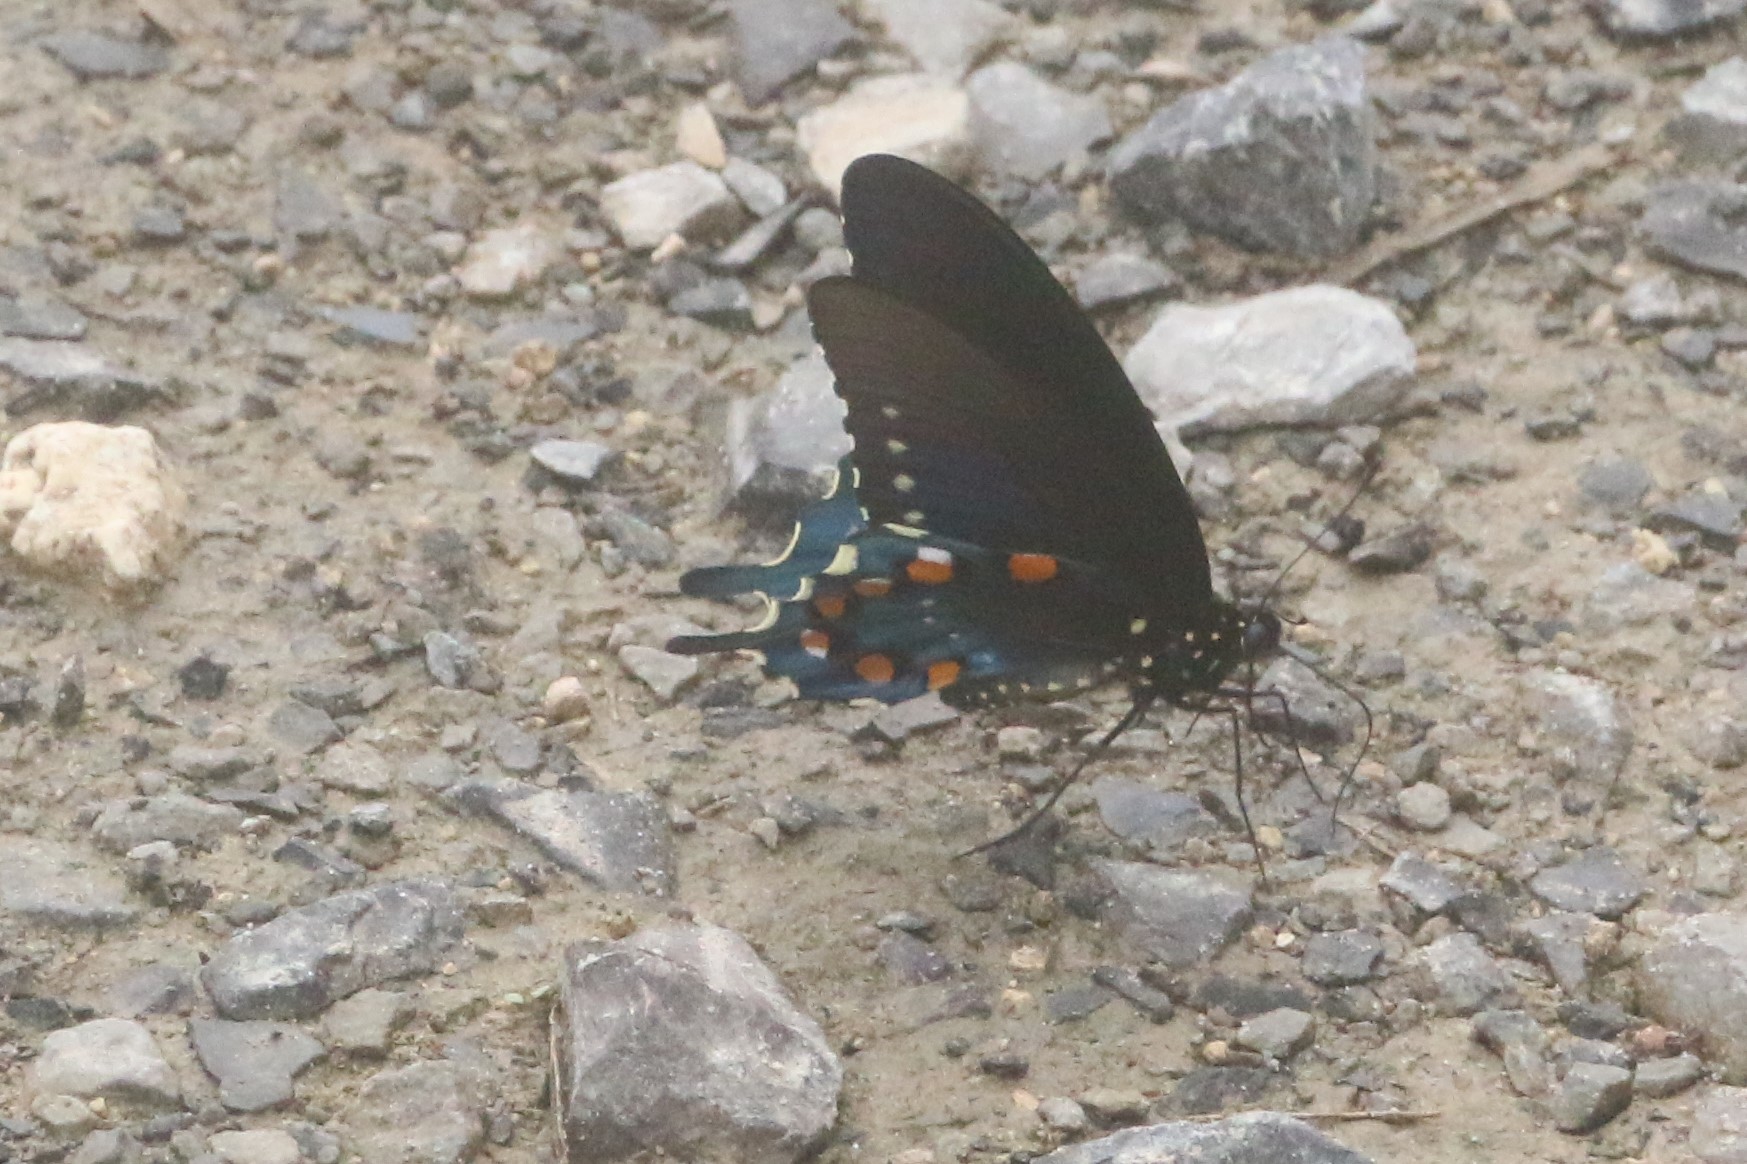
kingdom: Animalia
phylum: Arthropoda
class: Insecta
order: Lepidoptera
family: Papilionidae
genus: Battus
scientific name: Battus philenor
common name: Pipevine swallowtail
